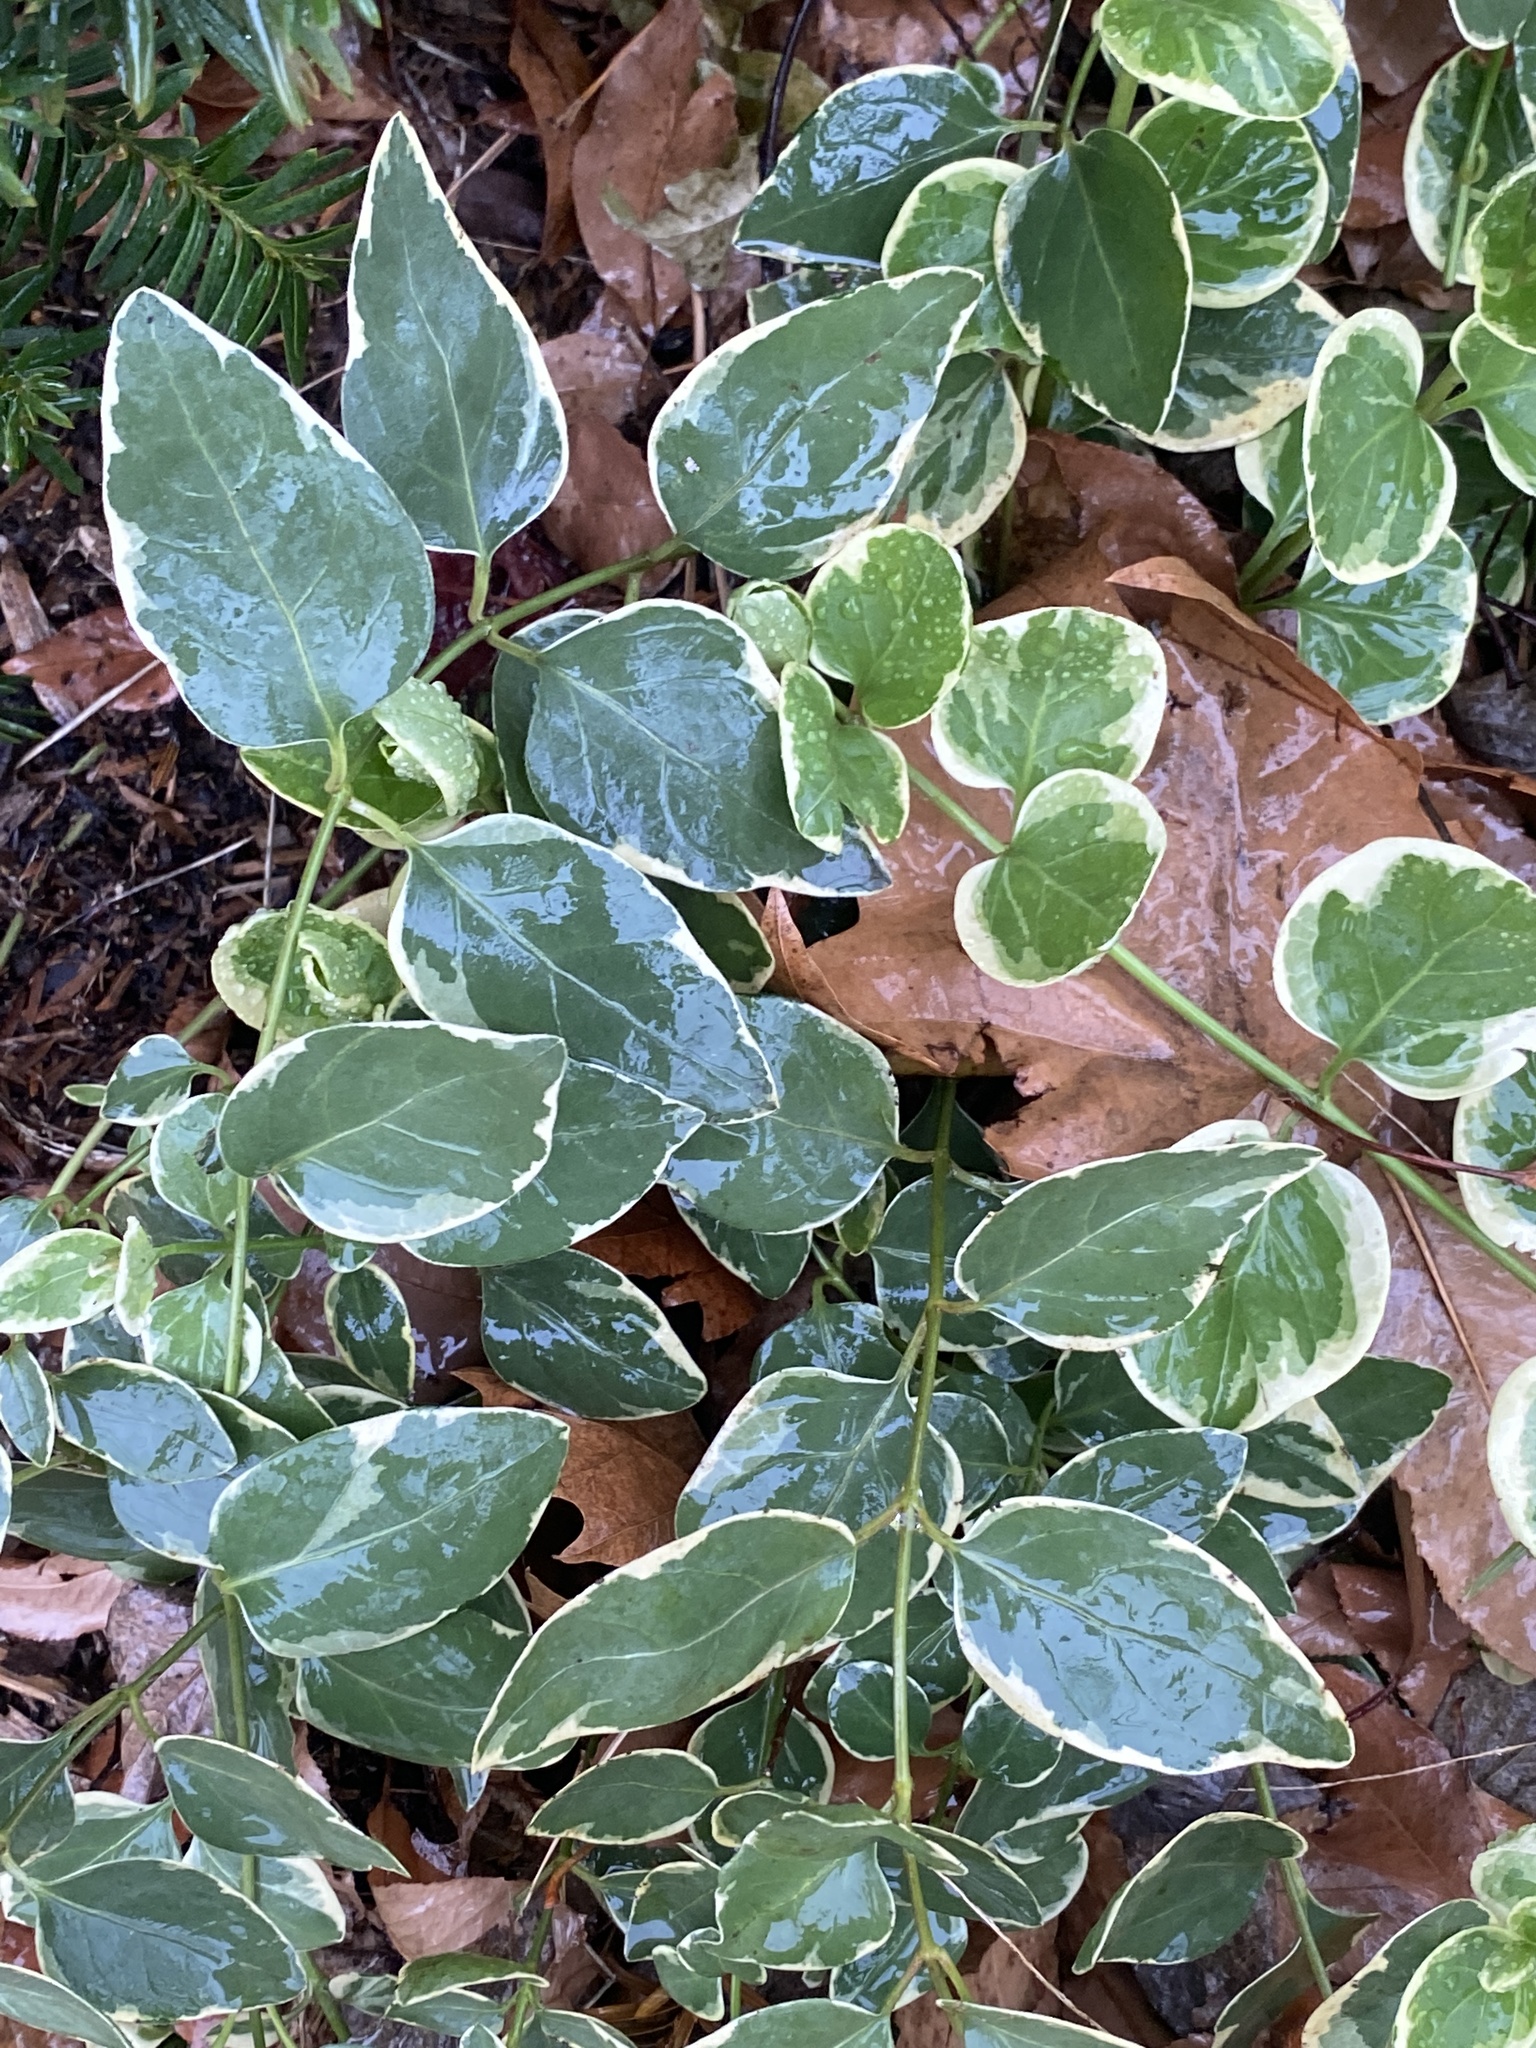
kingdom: Plantae
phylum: Tracheophyta
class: Magnoliopsida
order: Gentianales
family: Apocynaceae
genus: Vinca
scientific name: Vinca major
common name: Greater periwinkle
